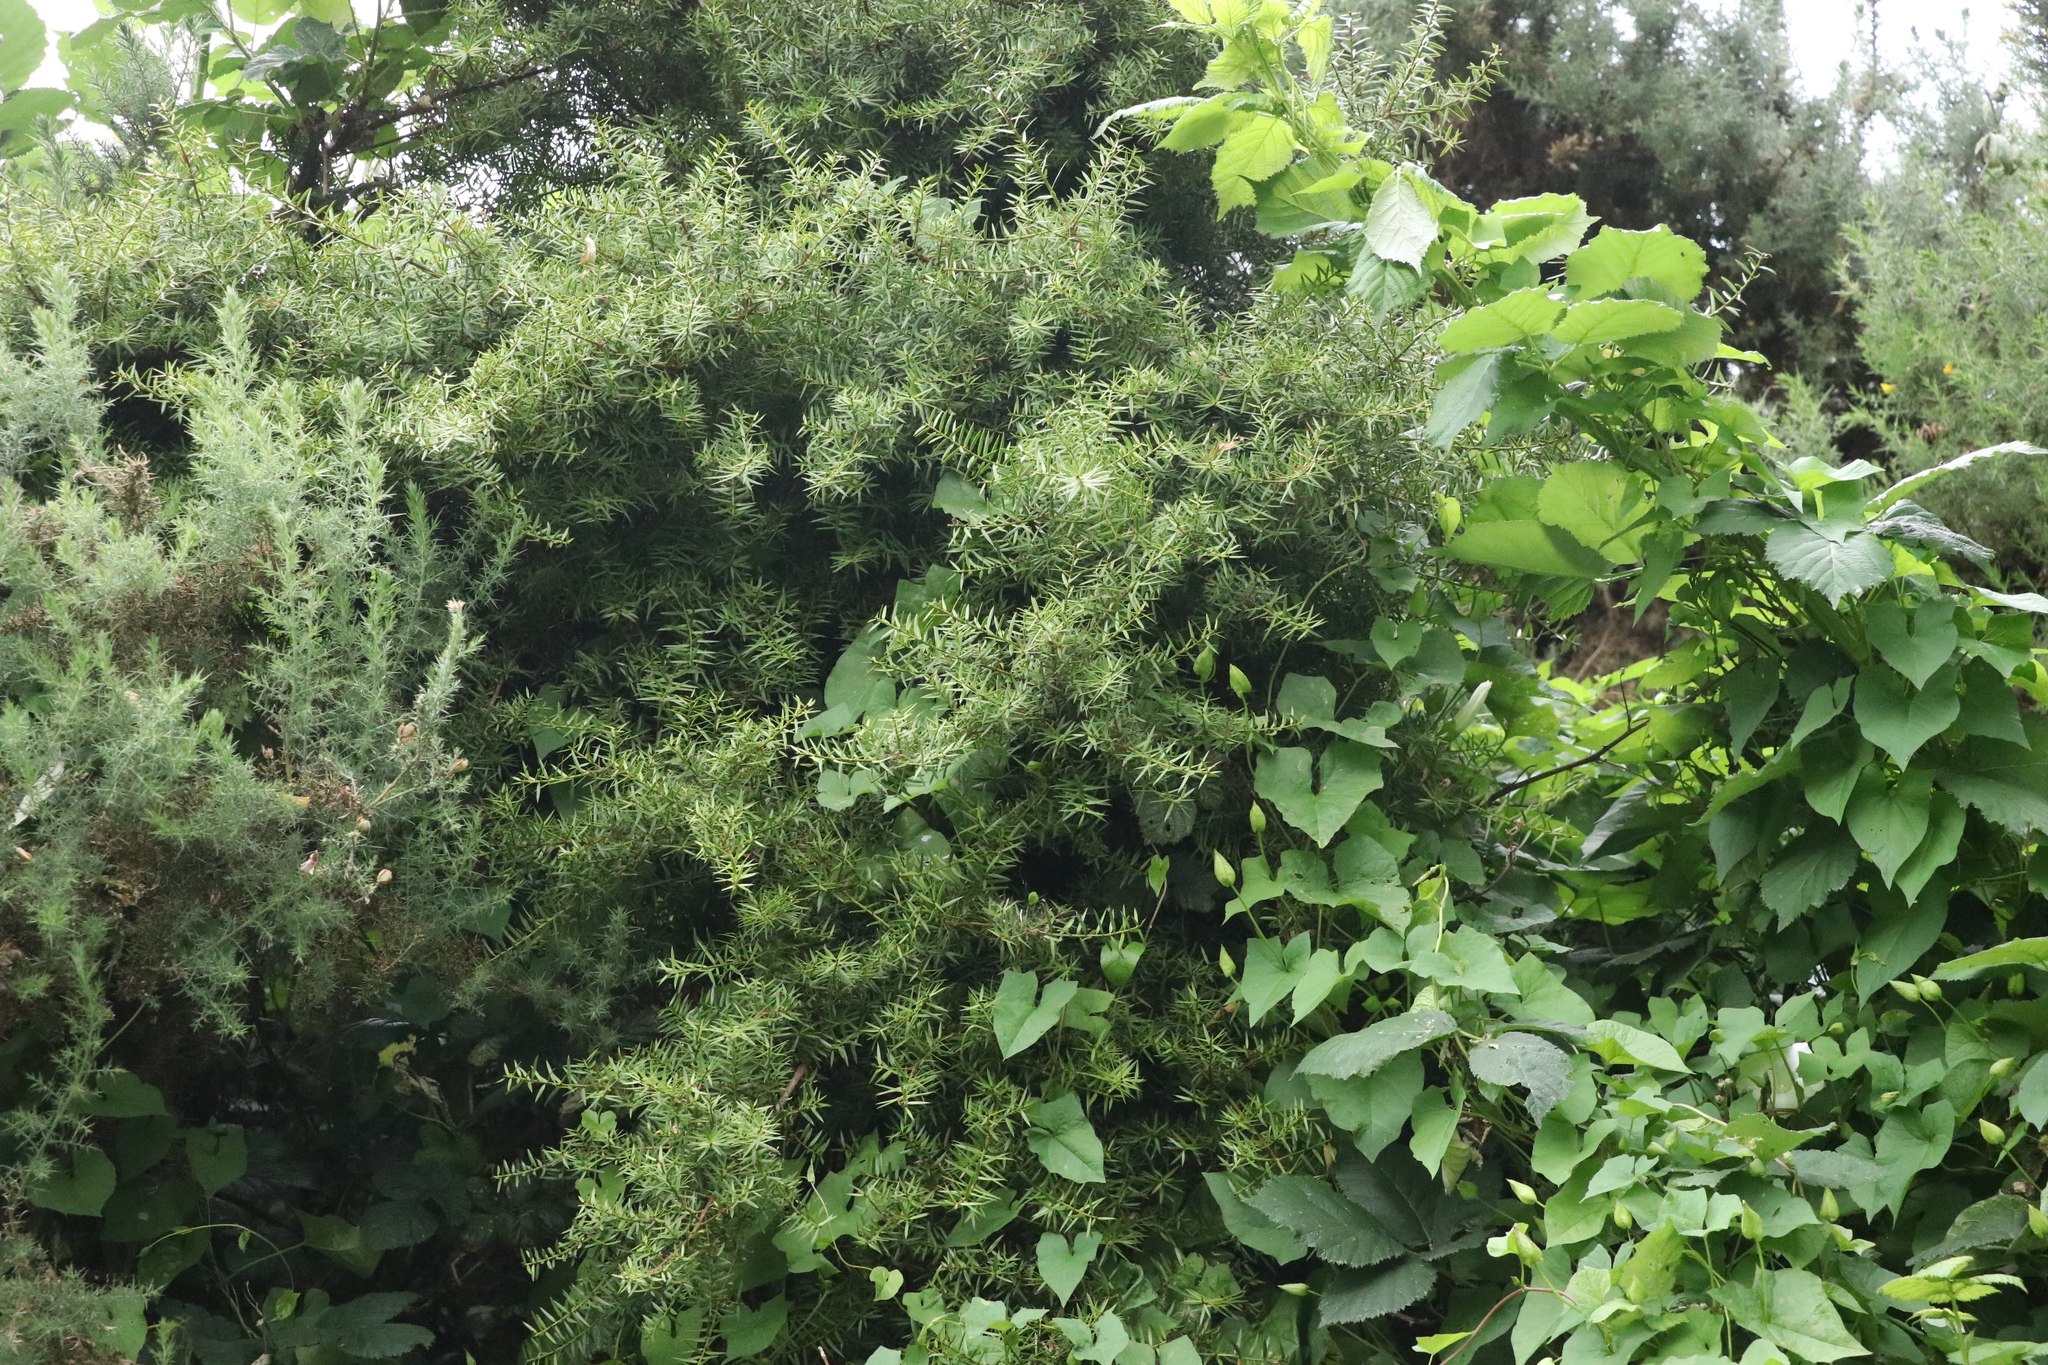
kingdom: Plantae
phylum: Tracheophyta
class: Pinopsida
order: Pinales
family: Podocarpaceae
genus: Podocarpus
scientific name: Podocarpus totara
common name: Totara
